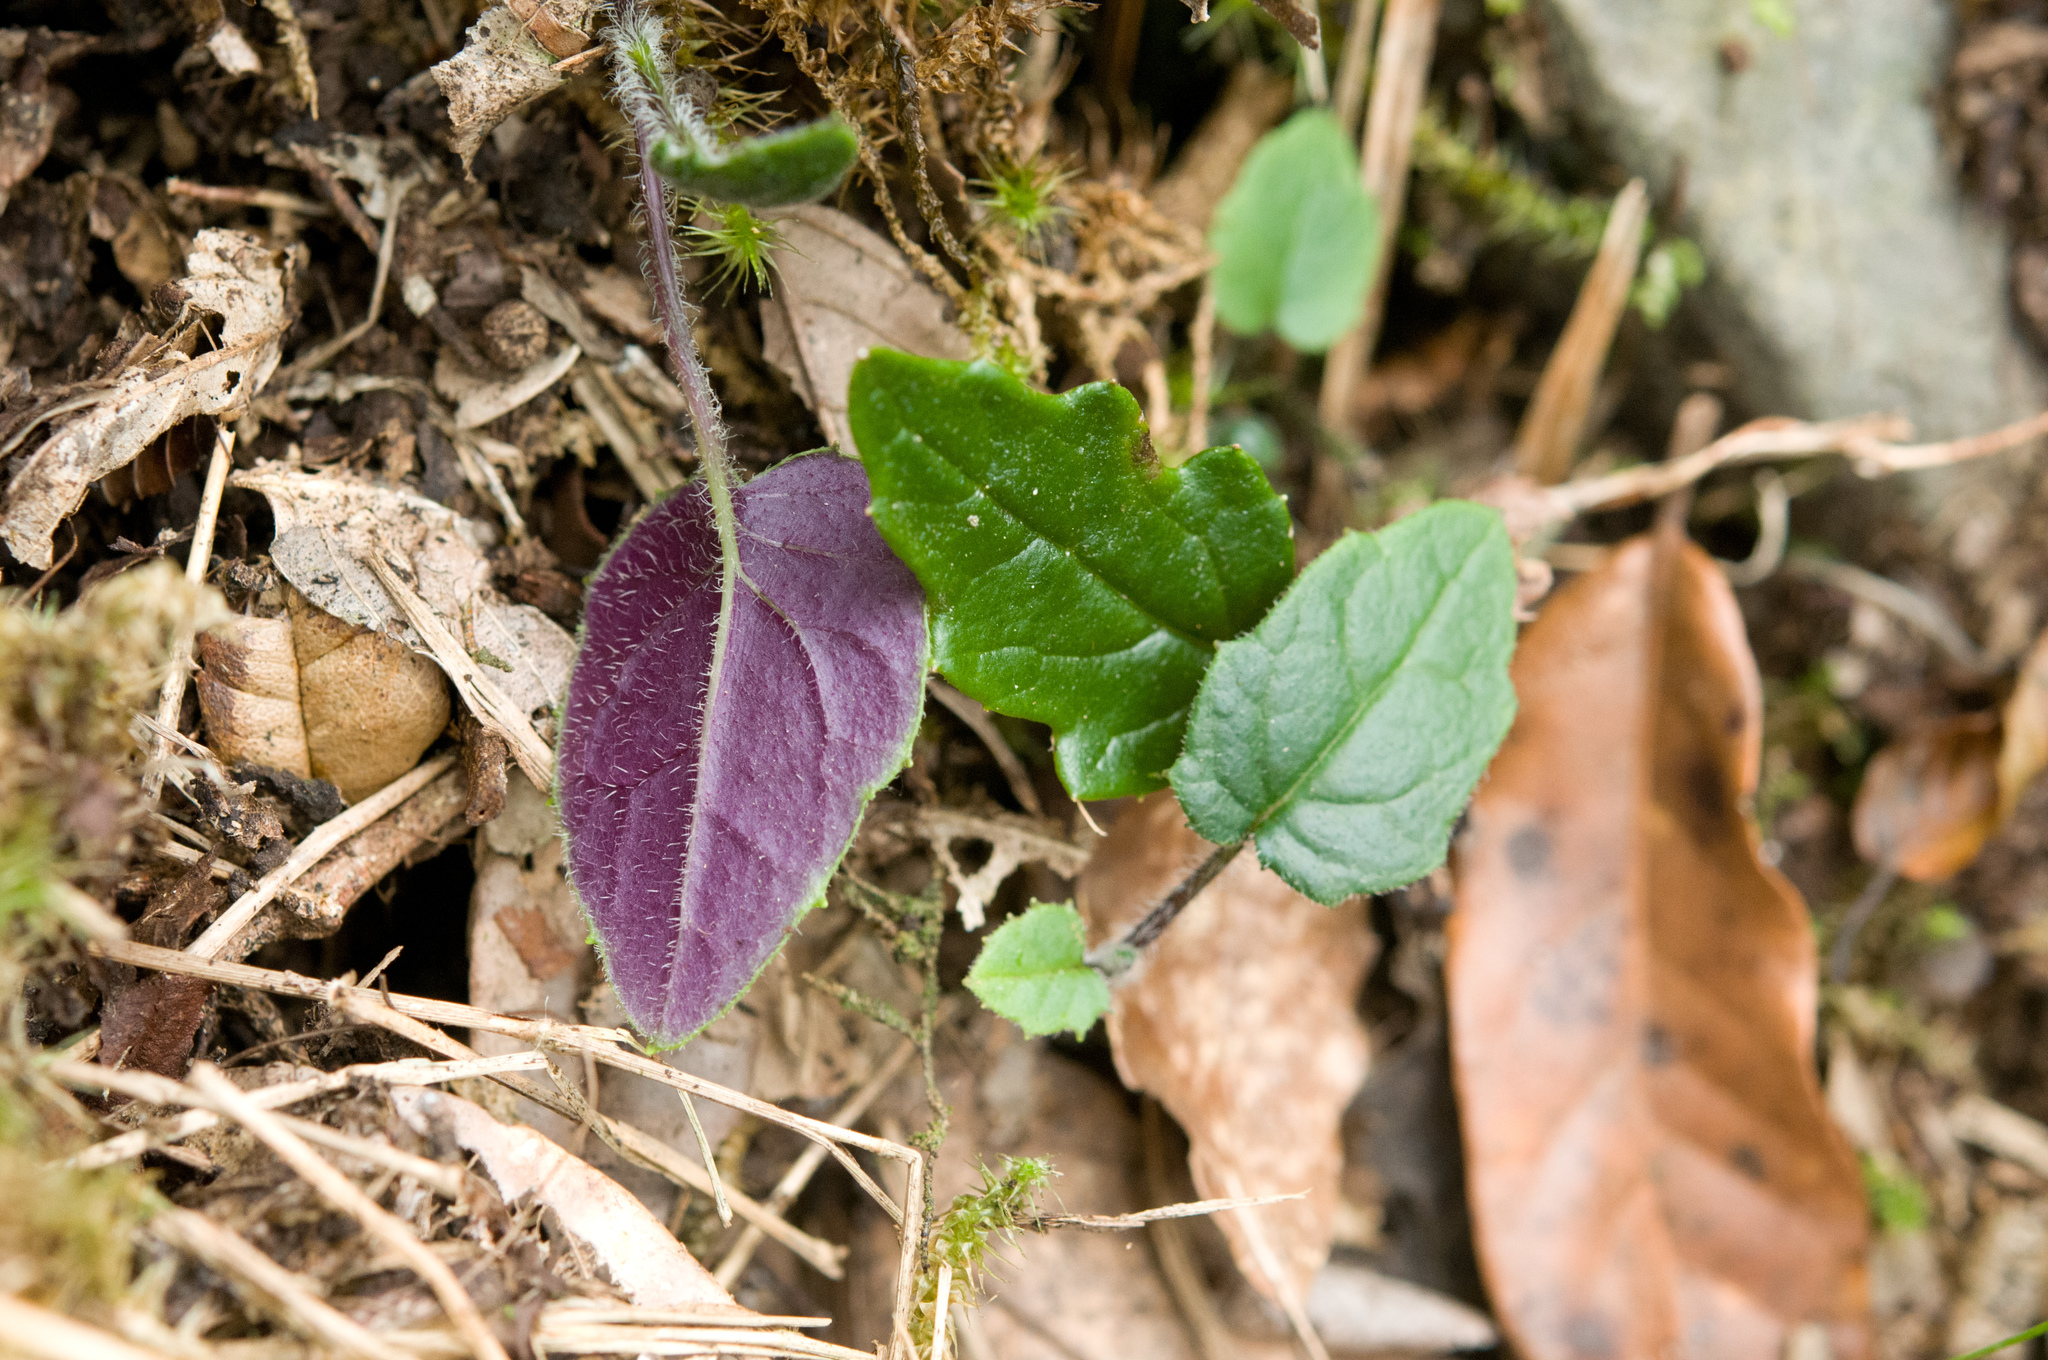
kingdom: Plantae
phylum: Tracheophyta
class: Magnoliopsida
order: Asterales
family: Asteraceae
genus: Jacobaea
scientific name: Jacobaea tarokoensis
